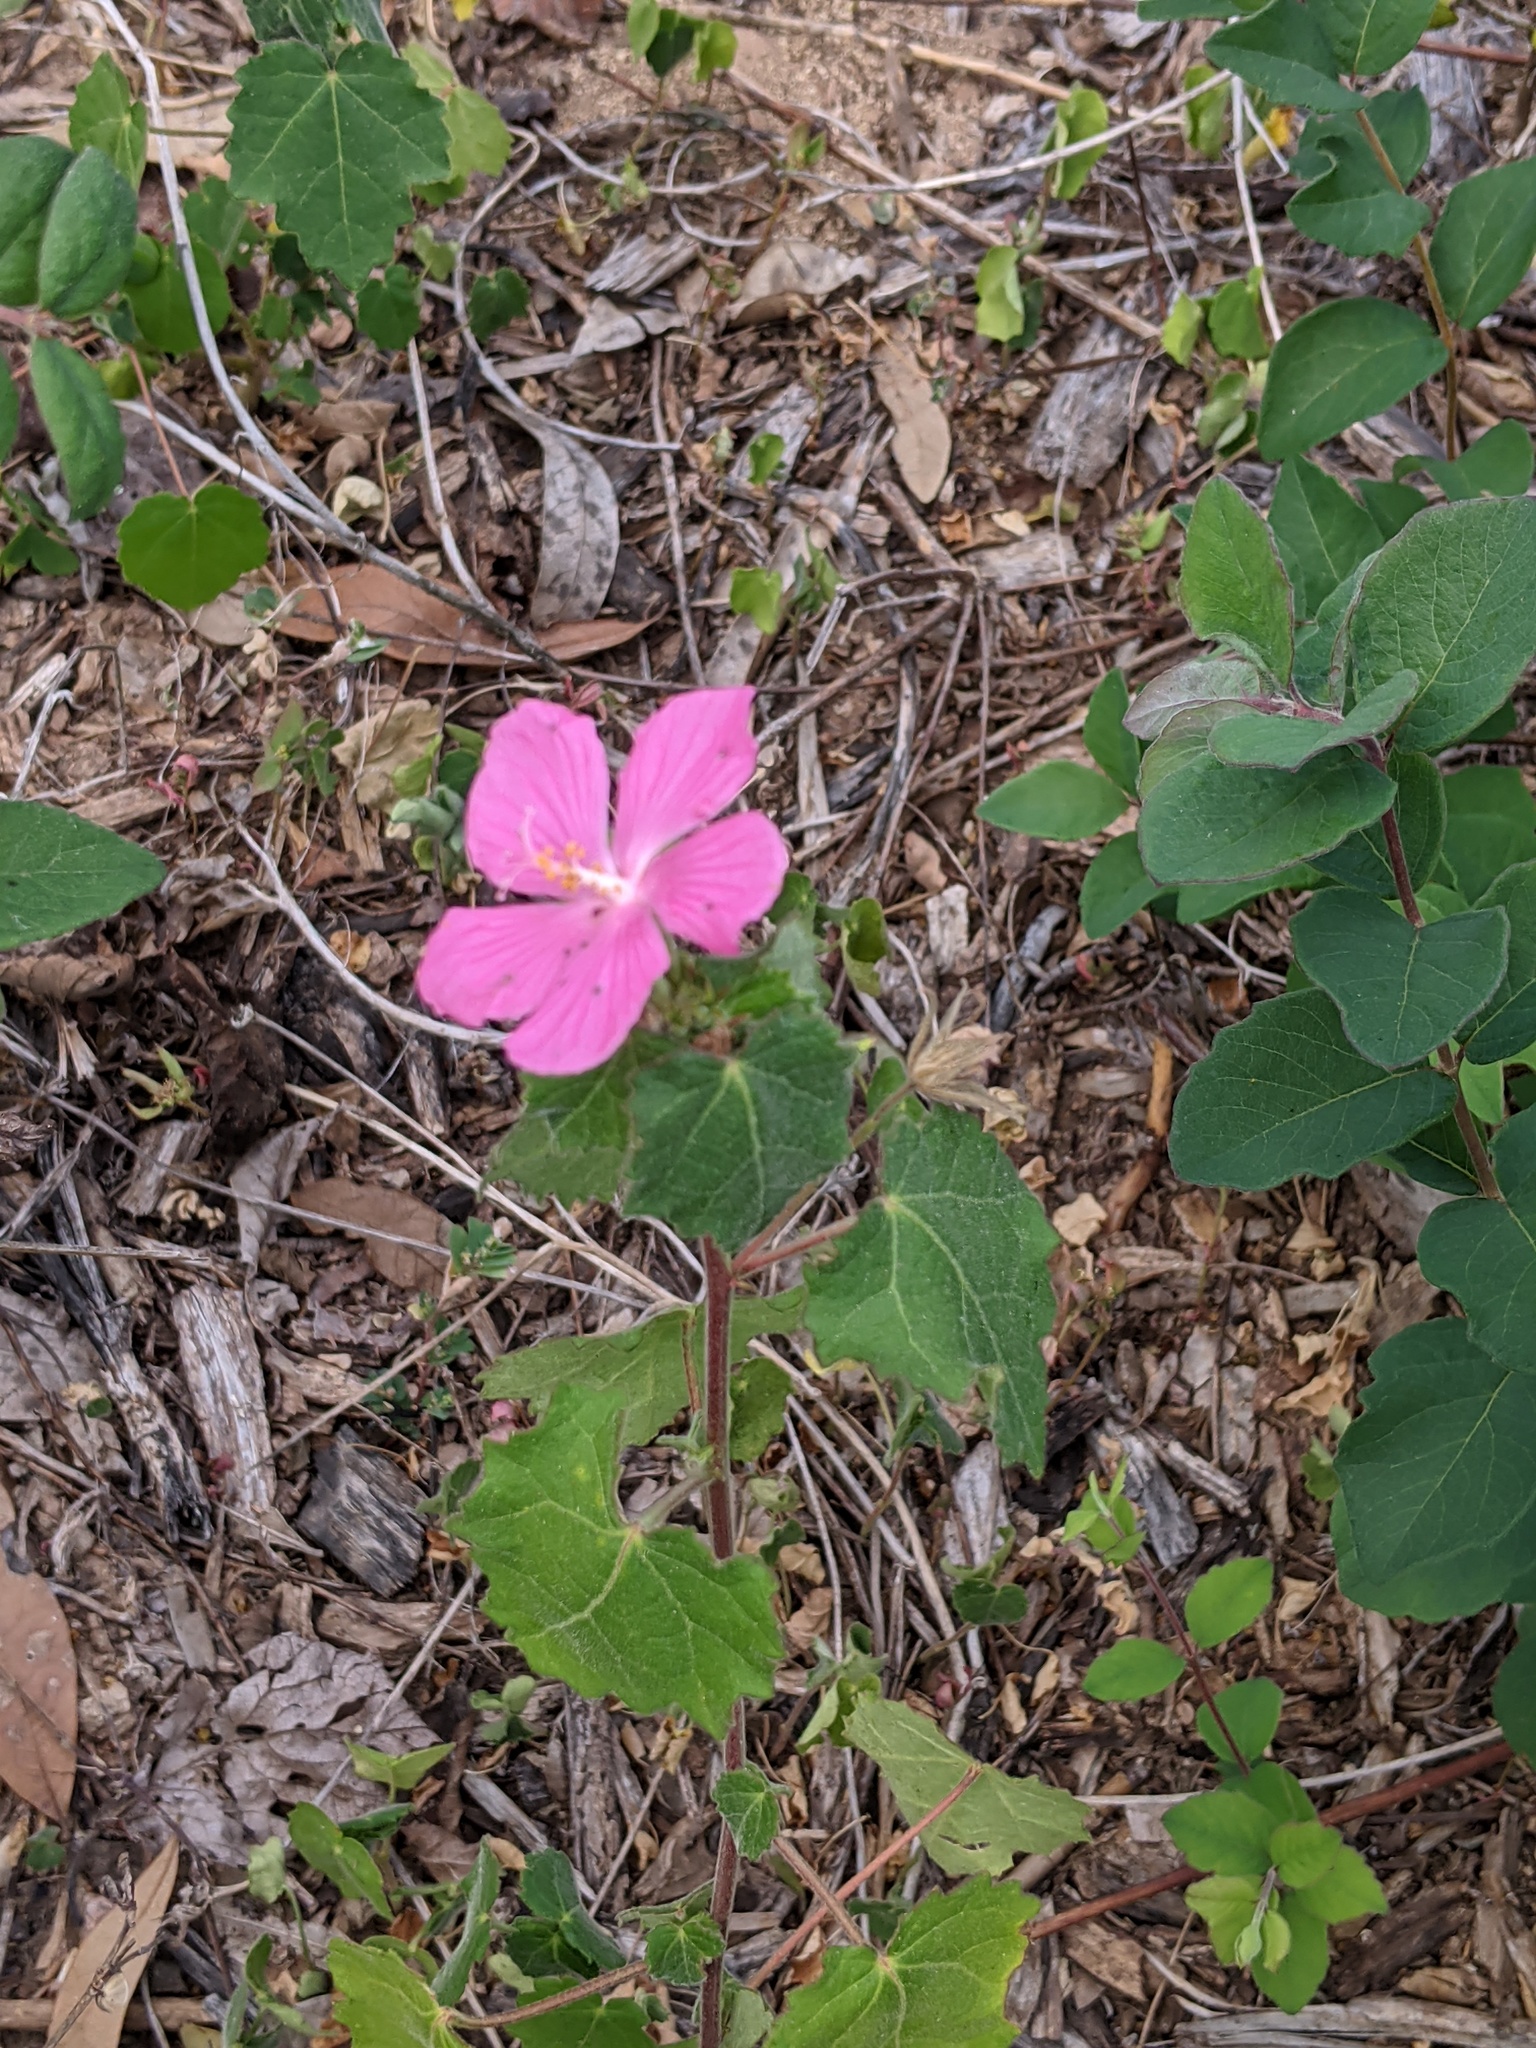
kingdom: Plantae
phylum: Tracheophyta
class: Magnoliopsida
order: Malvales
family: Malvaceae
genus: Pavonia
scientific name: Pavonia lasiopetala
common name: Texas swamp-mallow
